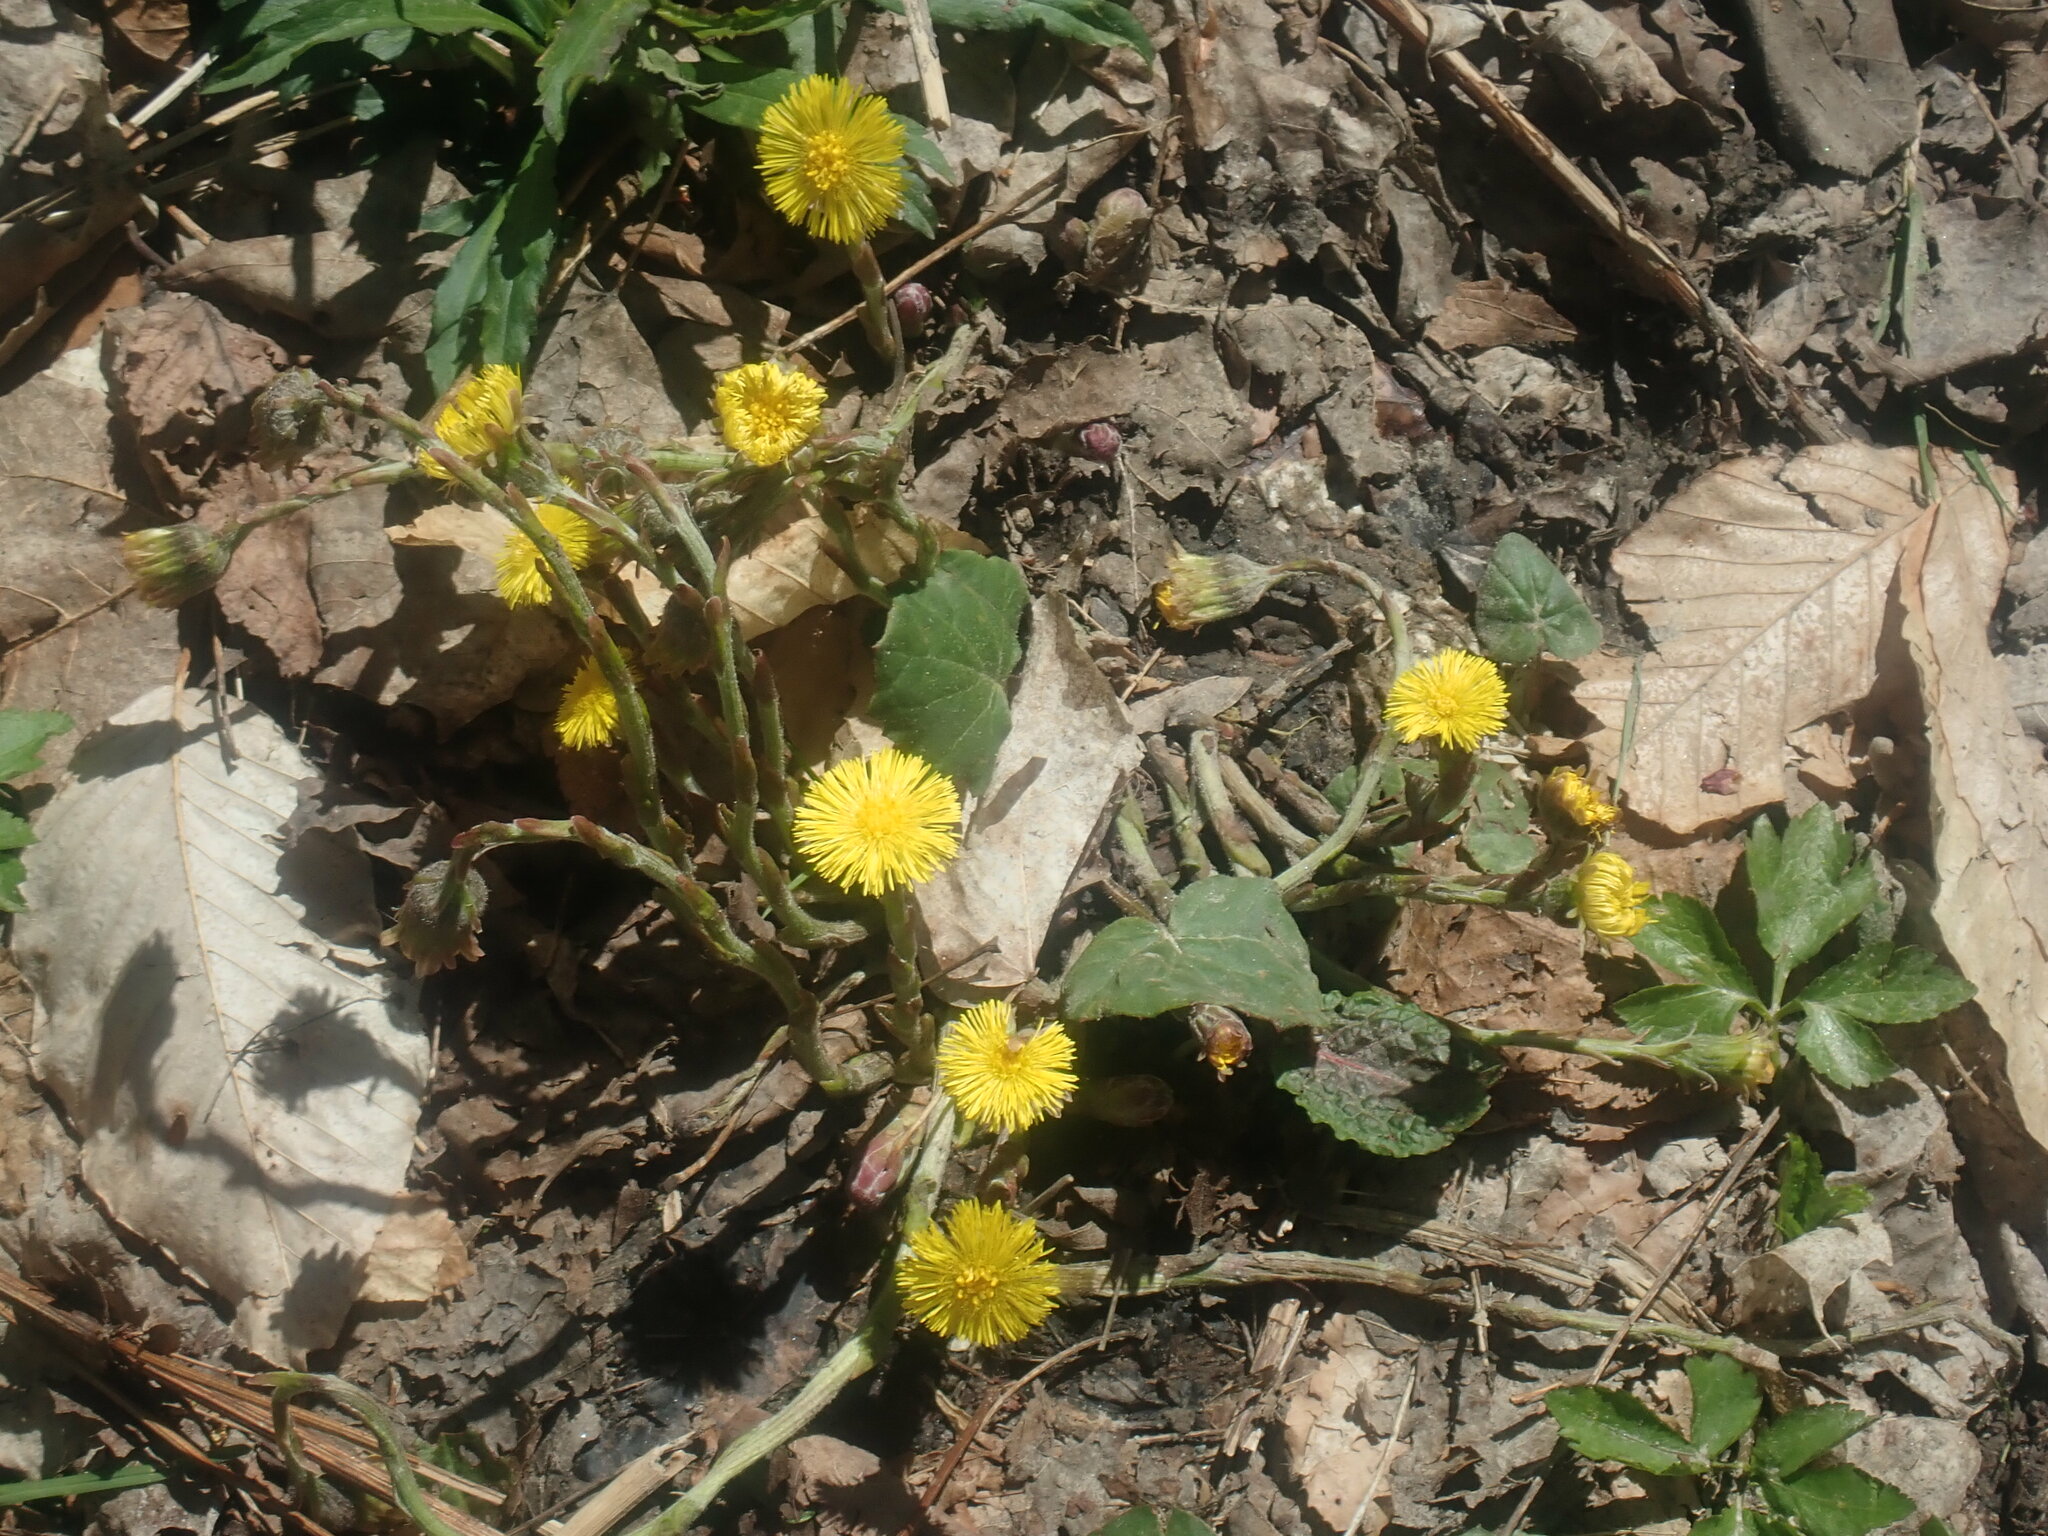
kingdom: Plantae
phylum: Tracheophyta
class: Magnoliopsida
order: Asterales
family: Asteraceae
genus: Tussilago
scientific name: Tussilago farfara
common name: Coltsfoot
